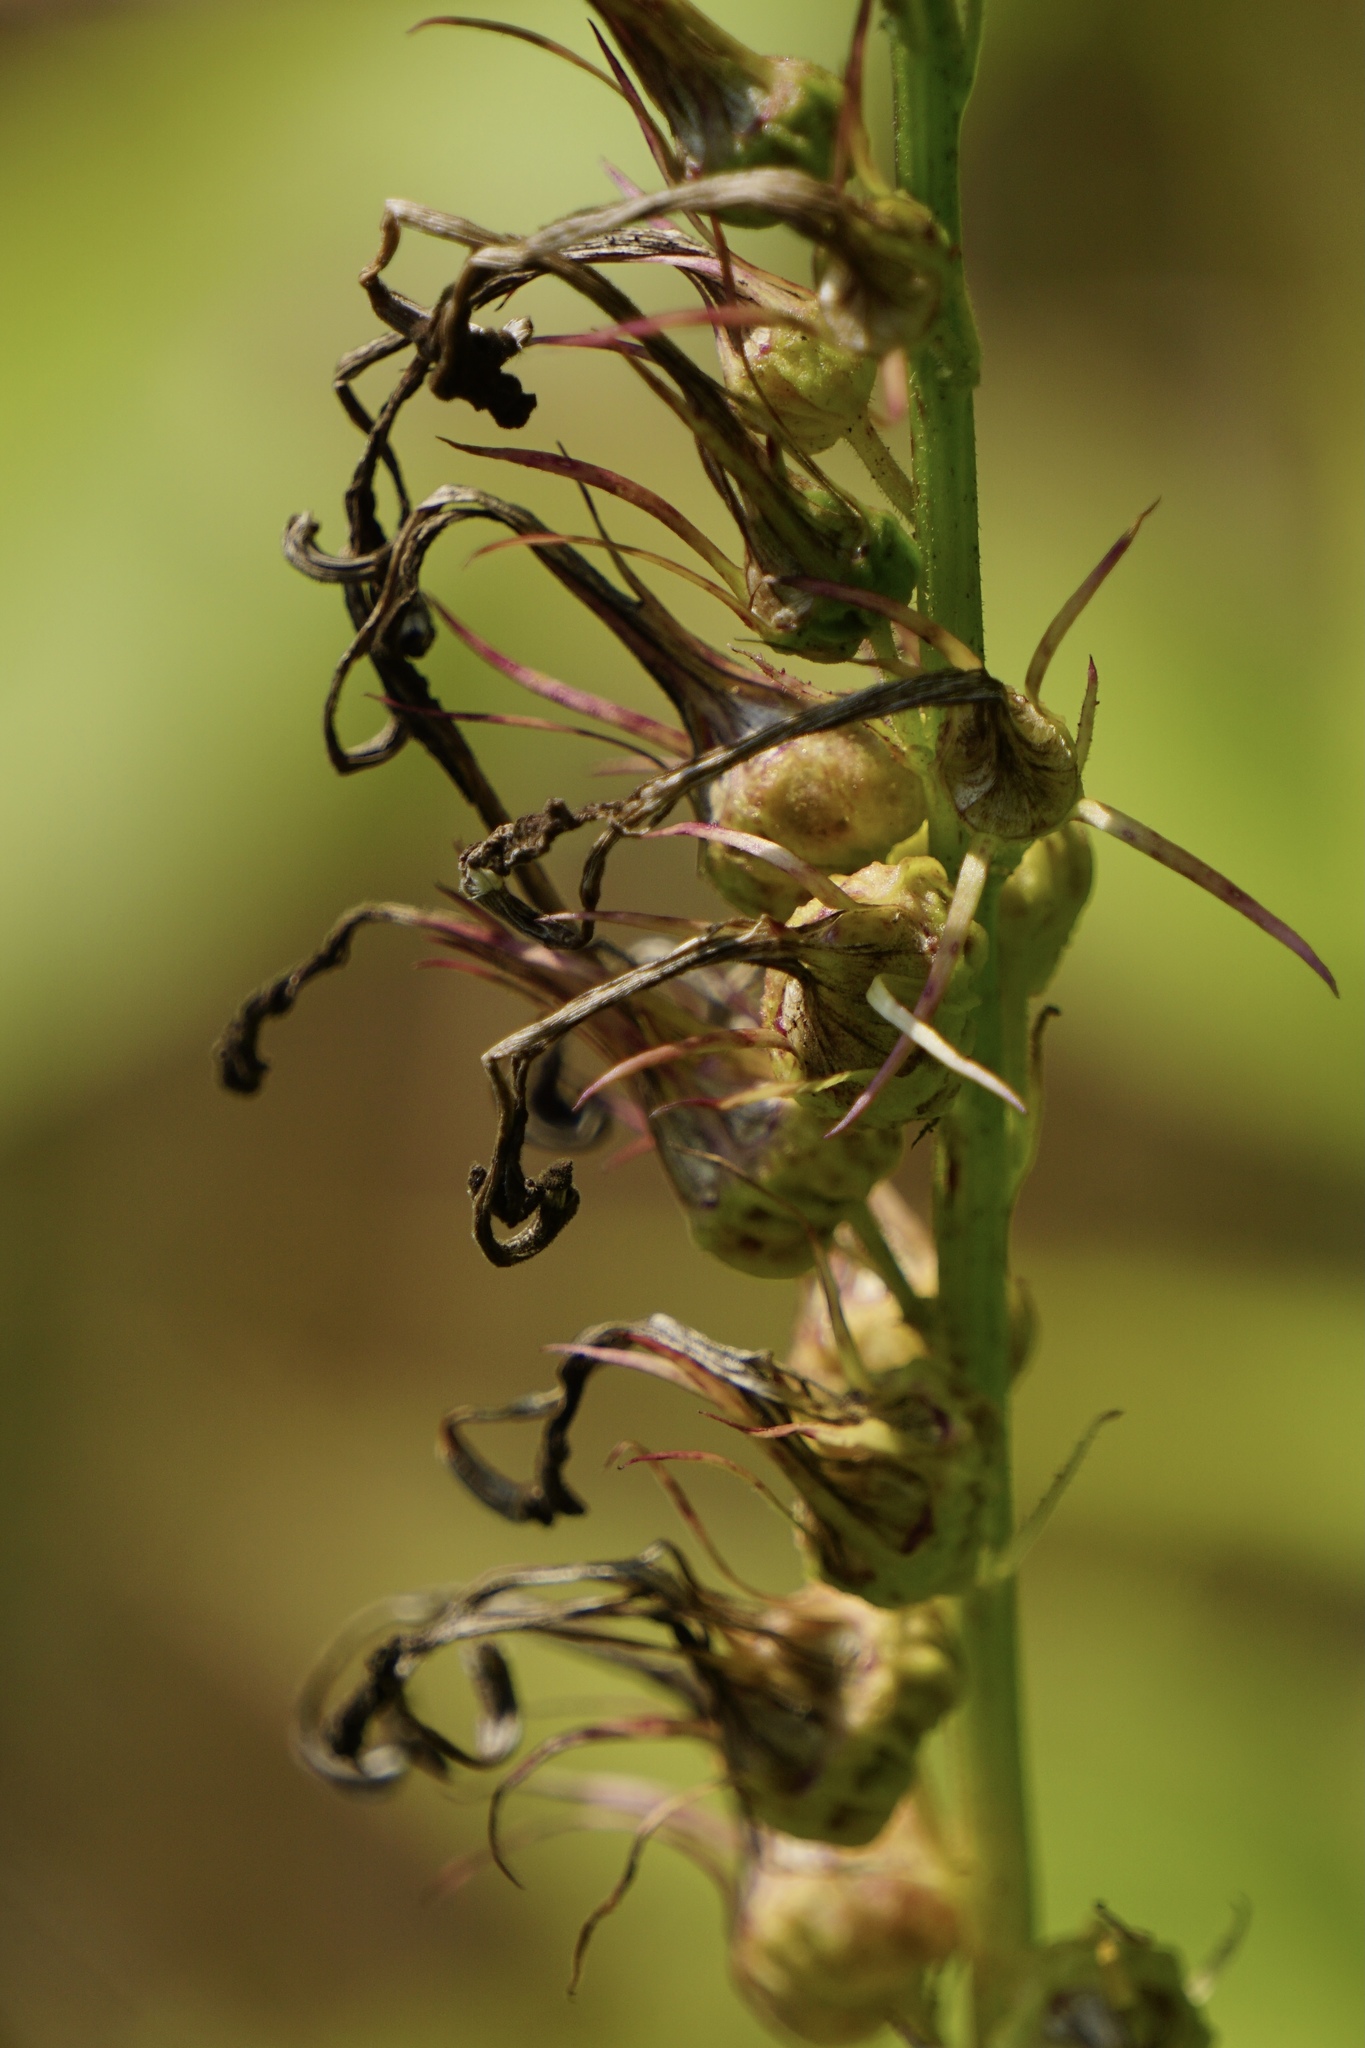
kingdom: Plantae
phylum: Tracheophyta
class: Magnoliopsida
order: Asterales
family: Campanulaceae
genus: Lobelia
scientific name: Lobelia cardinalis
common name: Cardinal flower
